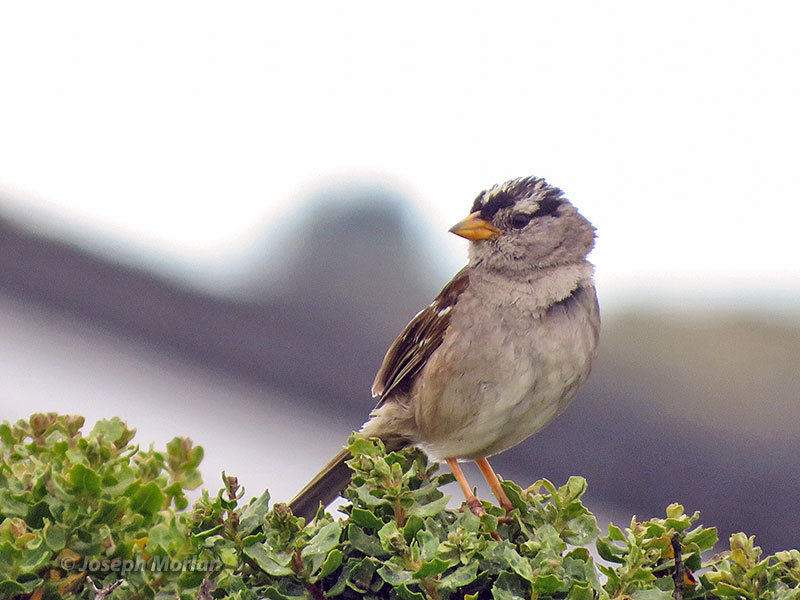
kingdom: Animalia
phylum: Chordata
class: Aves
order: Passeriformes
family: Passerellidae
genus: Zonotrichia
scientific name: Zonotrichia leucophrys
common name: White-crowned sparrow
